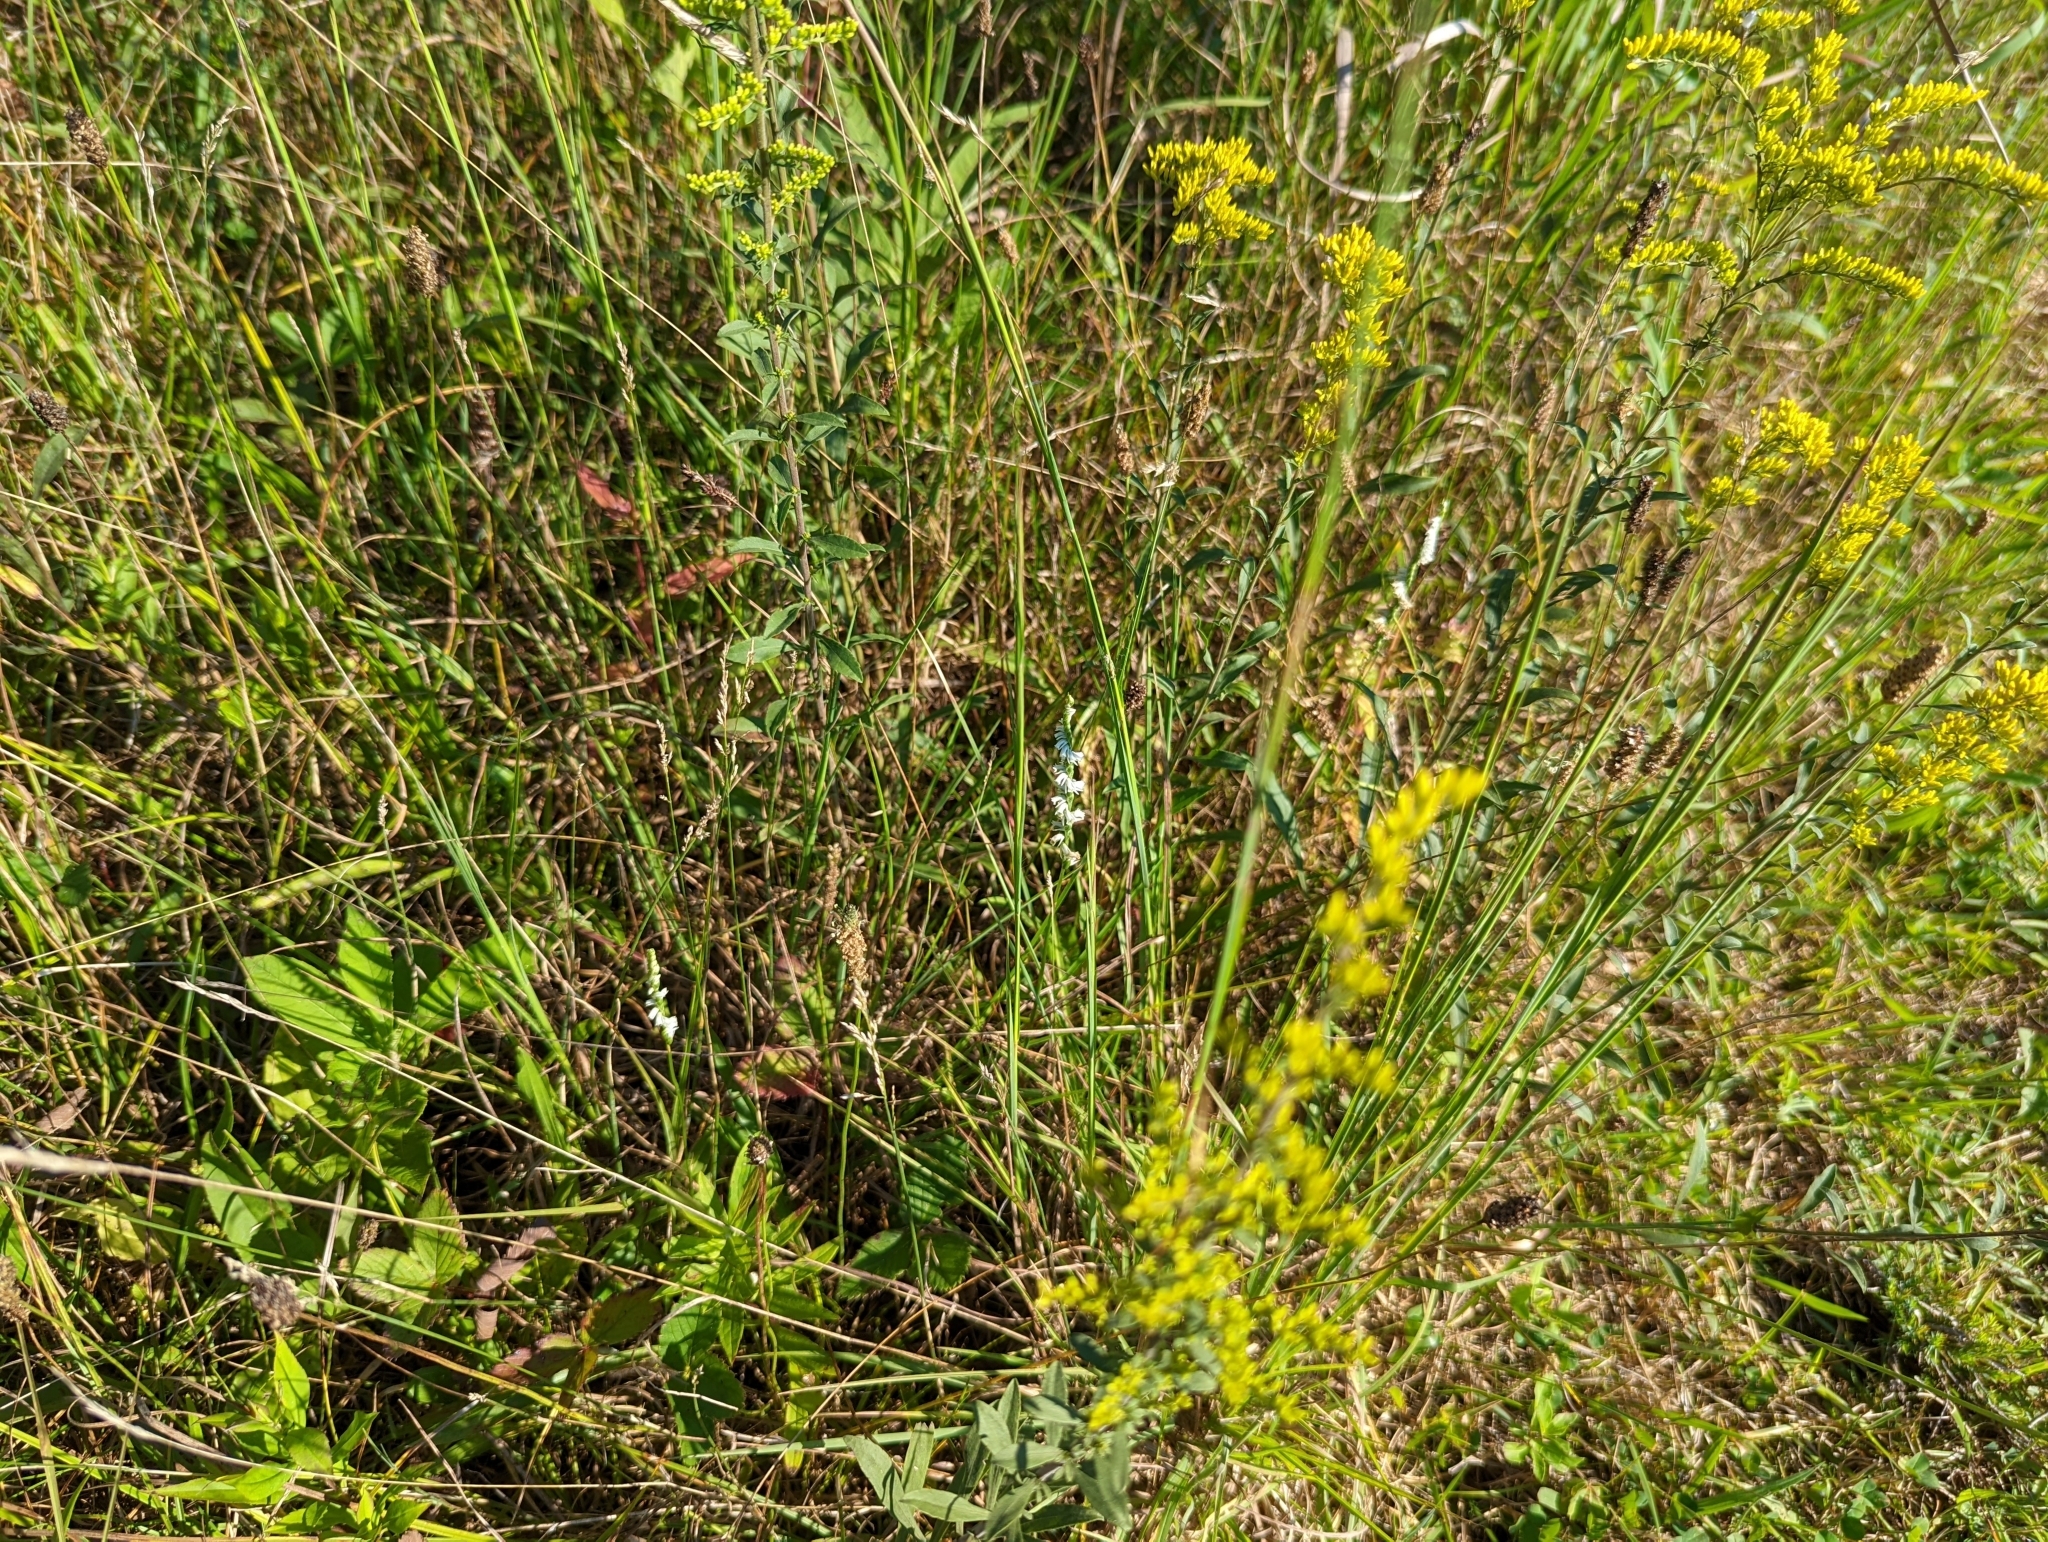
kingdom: Plantae
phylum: Tracheophyta
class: Liliopsida
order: Asparagales
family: Orchidaceae
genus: Spiranthes
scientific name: Spiranthes lacera
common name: Northern slender ladies'-tresses
